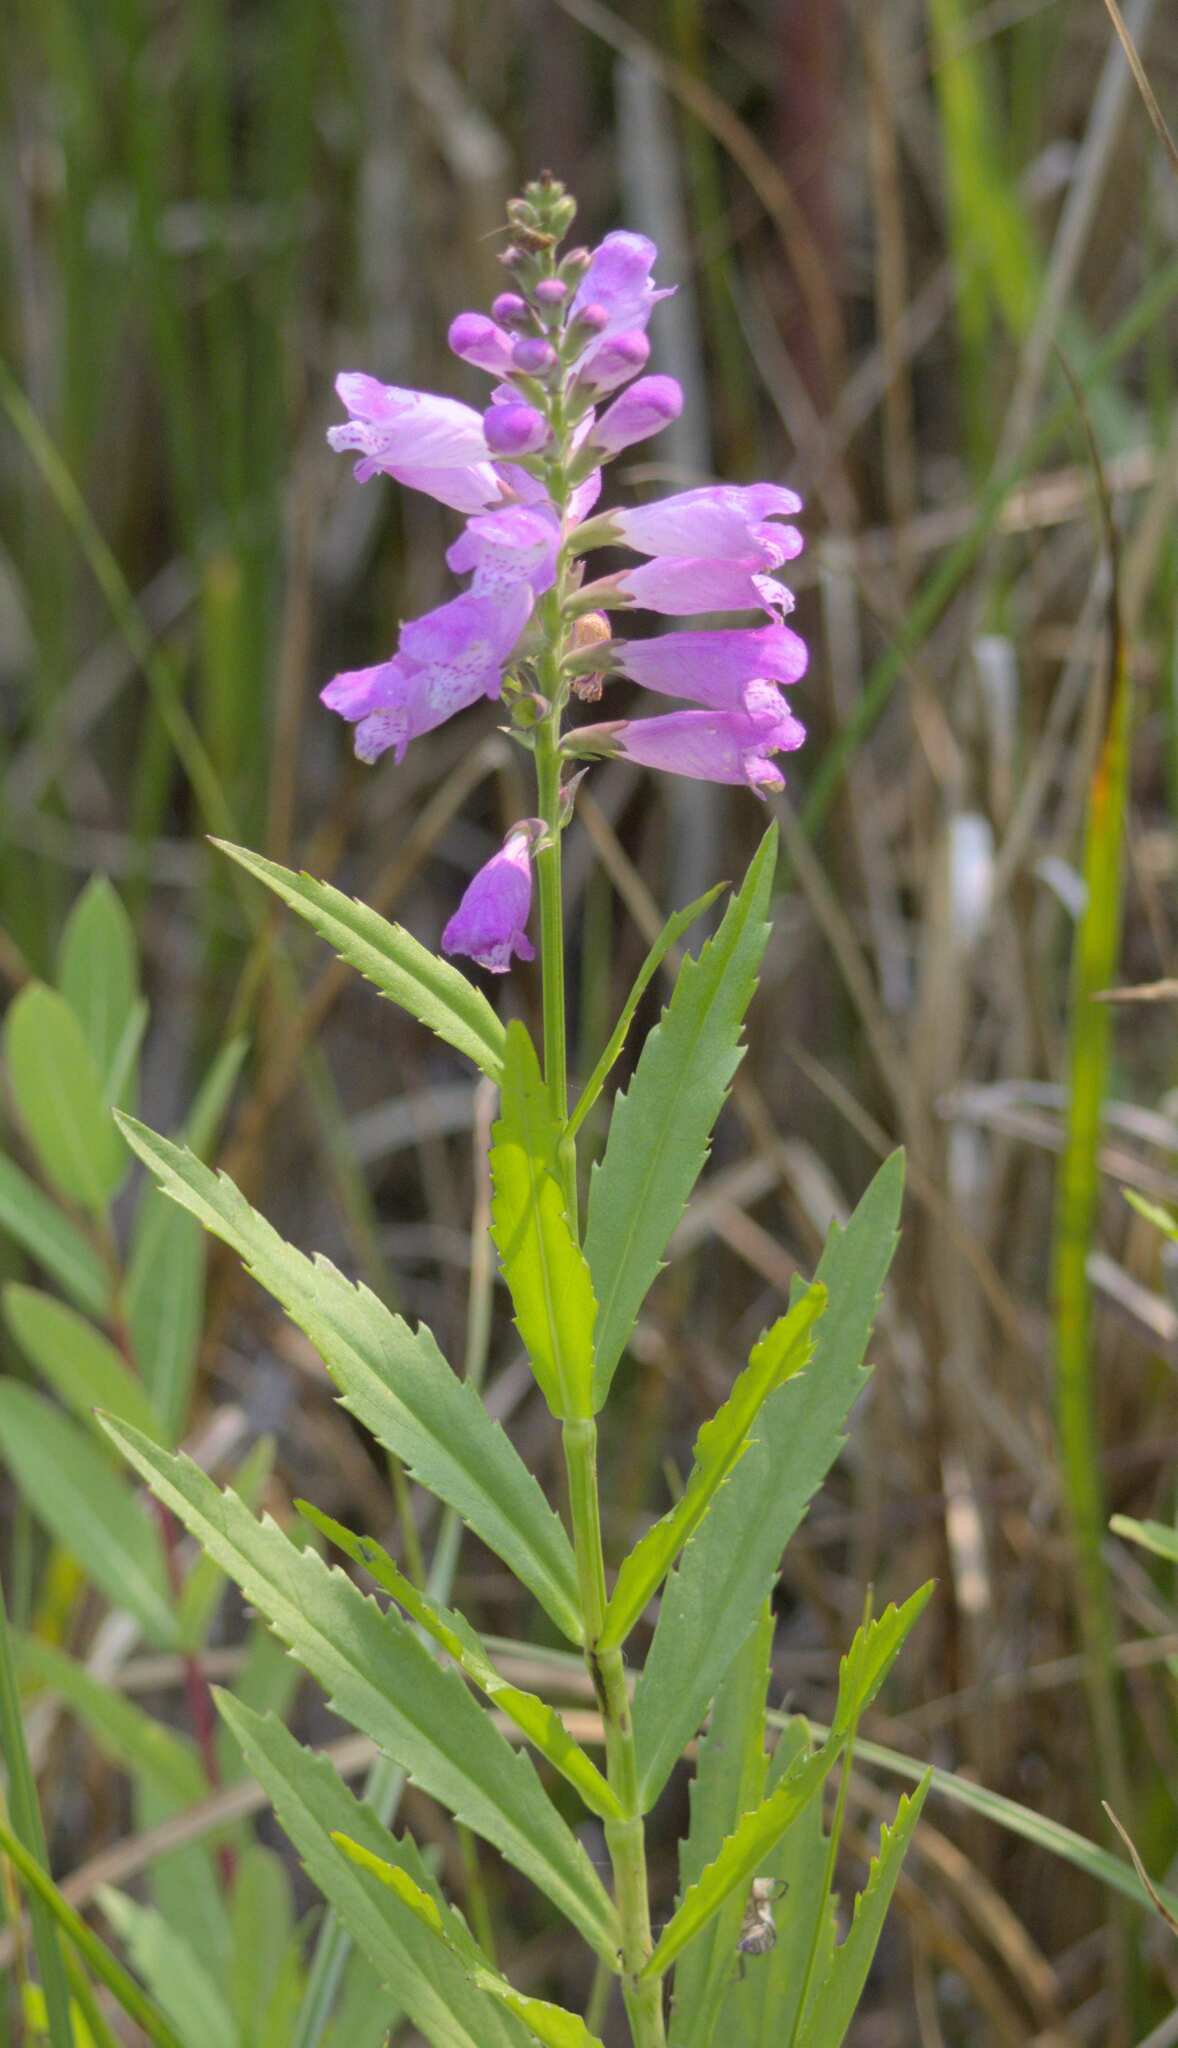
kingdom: Plantae
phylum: Tracheophyta
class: Magnoliopsida
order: Lamiales
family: Lamiaceae
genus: Physostegia
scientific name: Physostegia virginiana
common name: Obedient-plant
